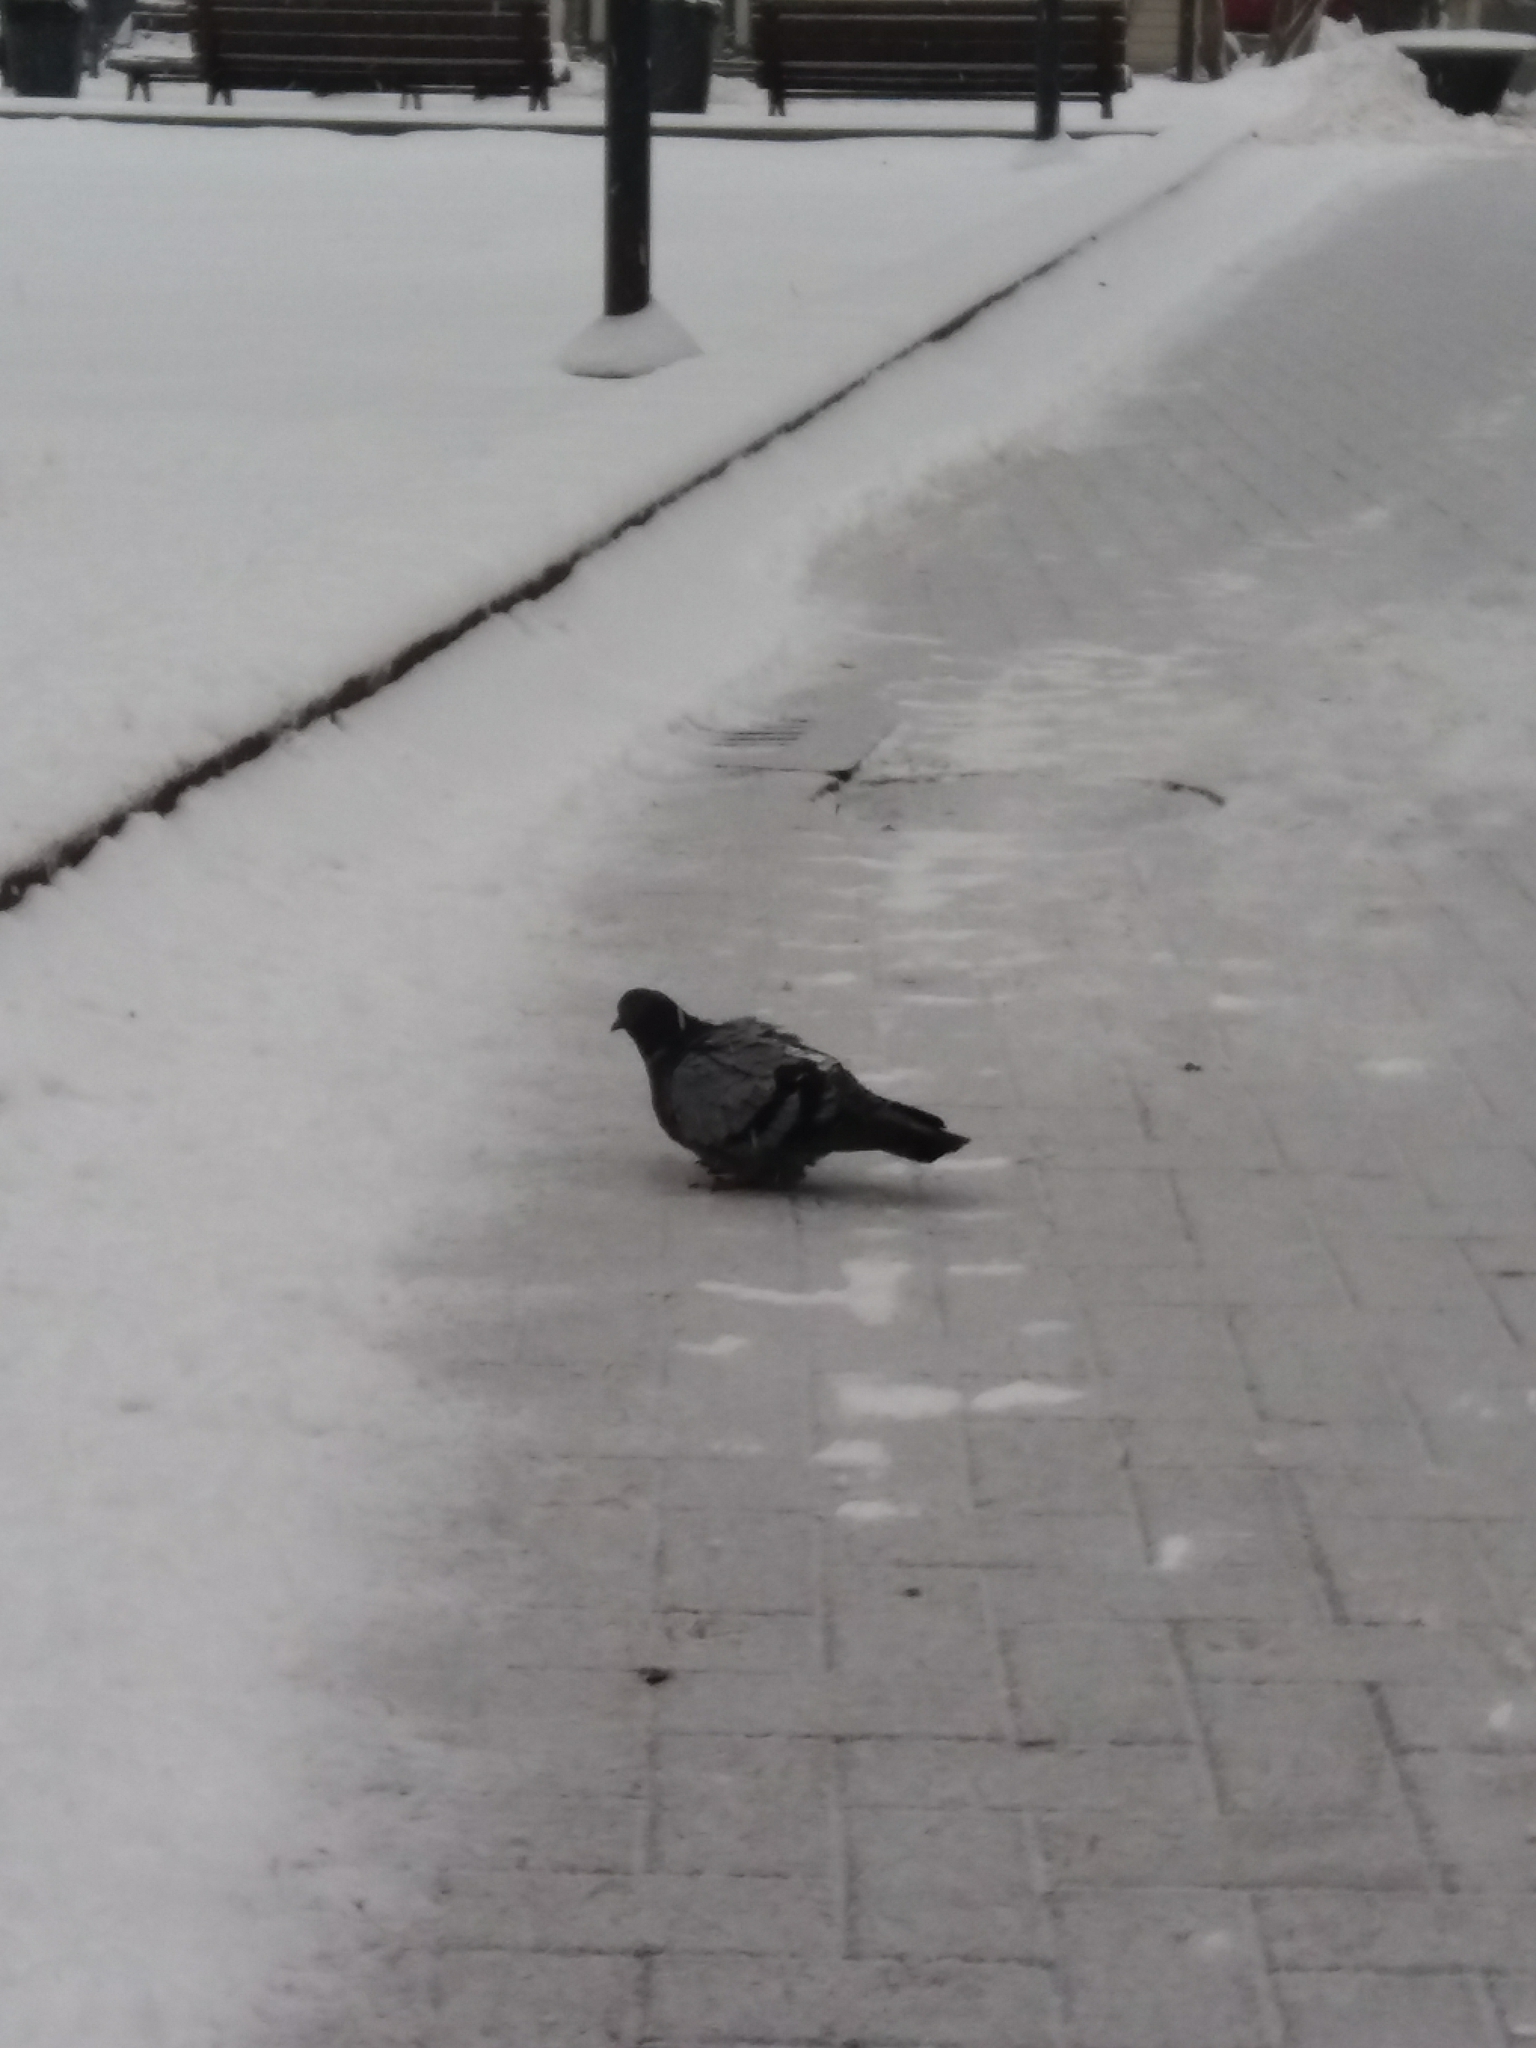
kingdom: Animalia
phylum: Chordata
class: Aves
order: Columbiformes
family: Columbidae
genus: Columba
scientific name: Columba livia
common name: Rock pigeon
